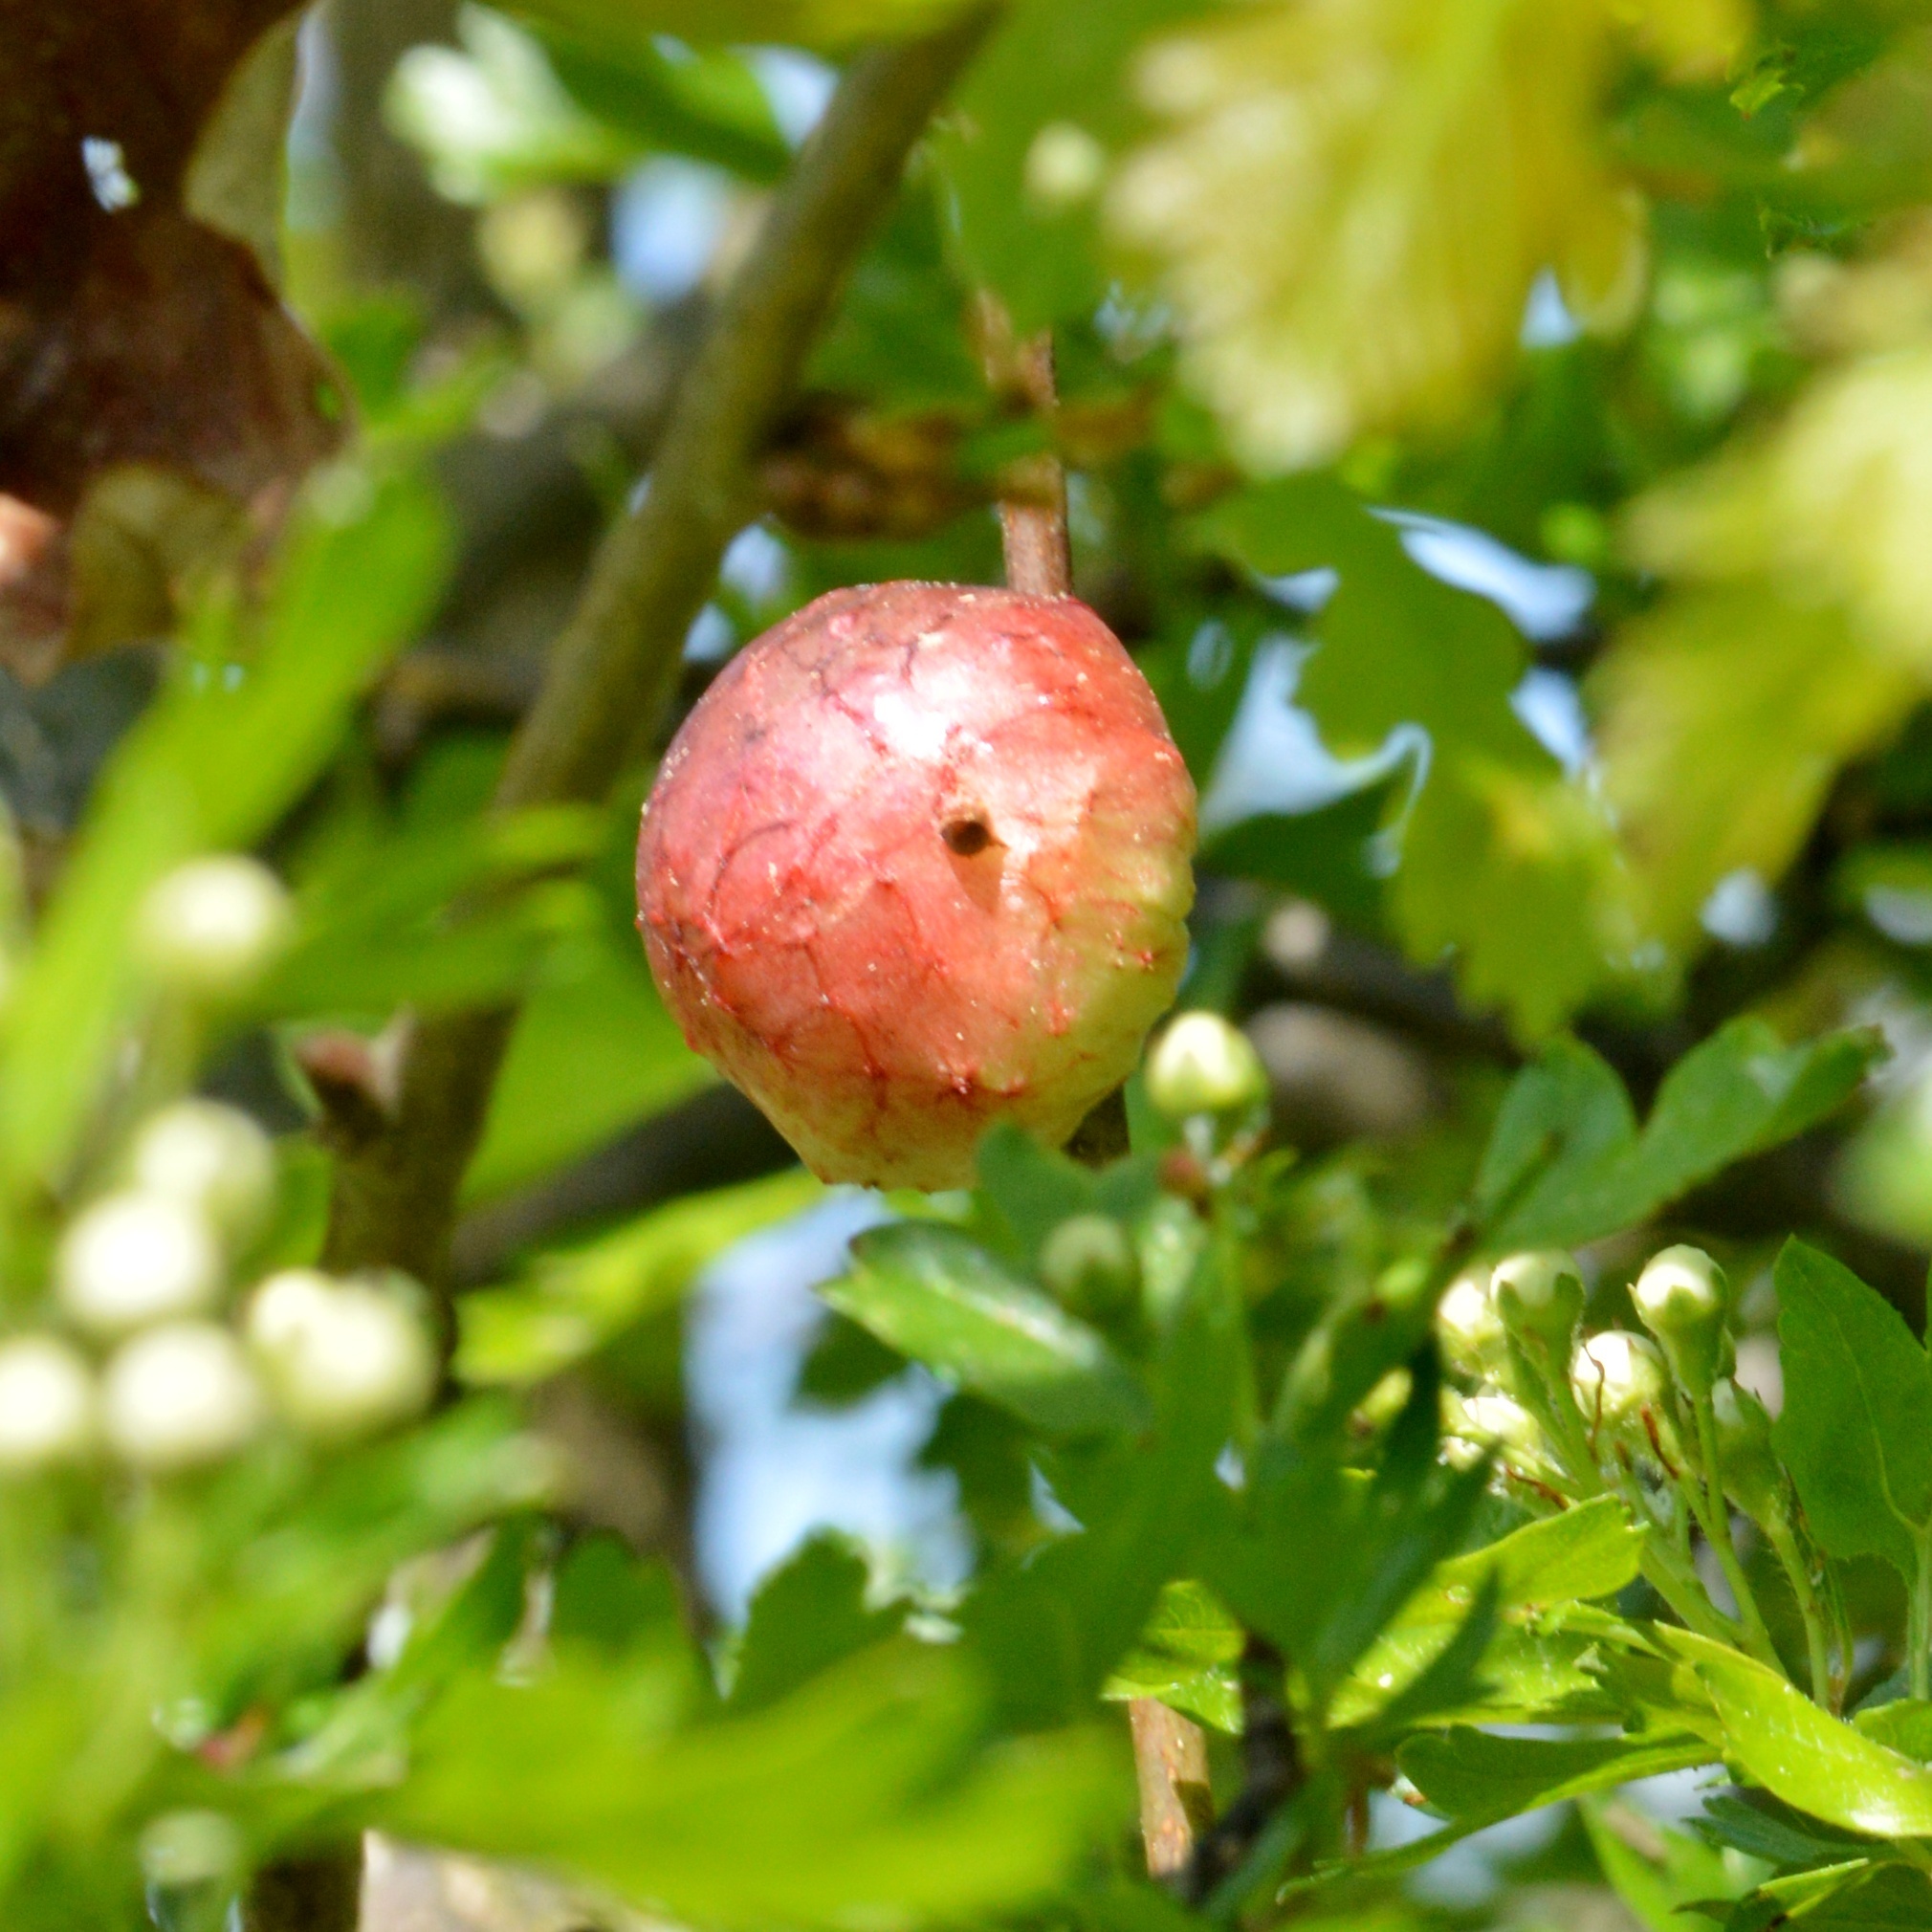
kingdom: Animalia
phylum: Arthropoda
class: Insecta
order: Hymenoptera
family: Cynipidae
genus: Biorhiza
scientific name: Biorhiza pallida
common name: Oak apple
